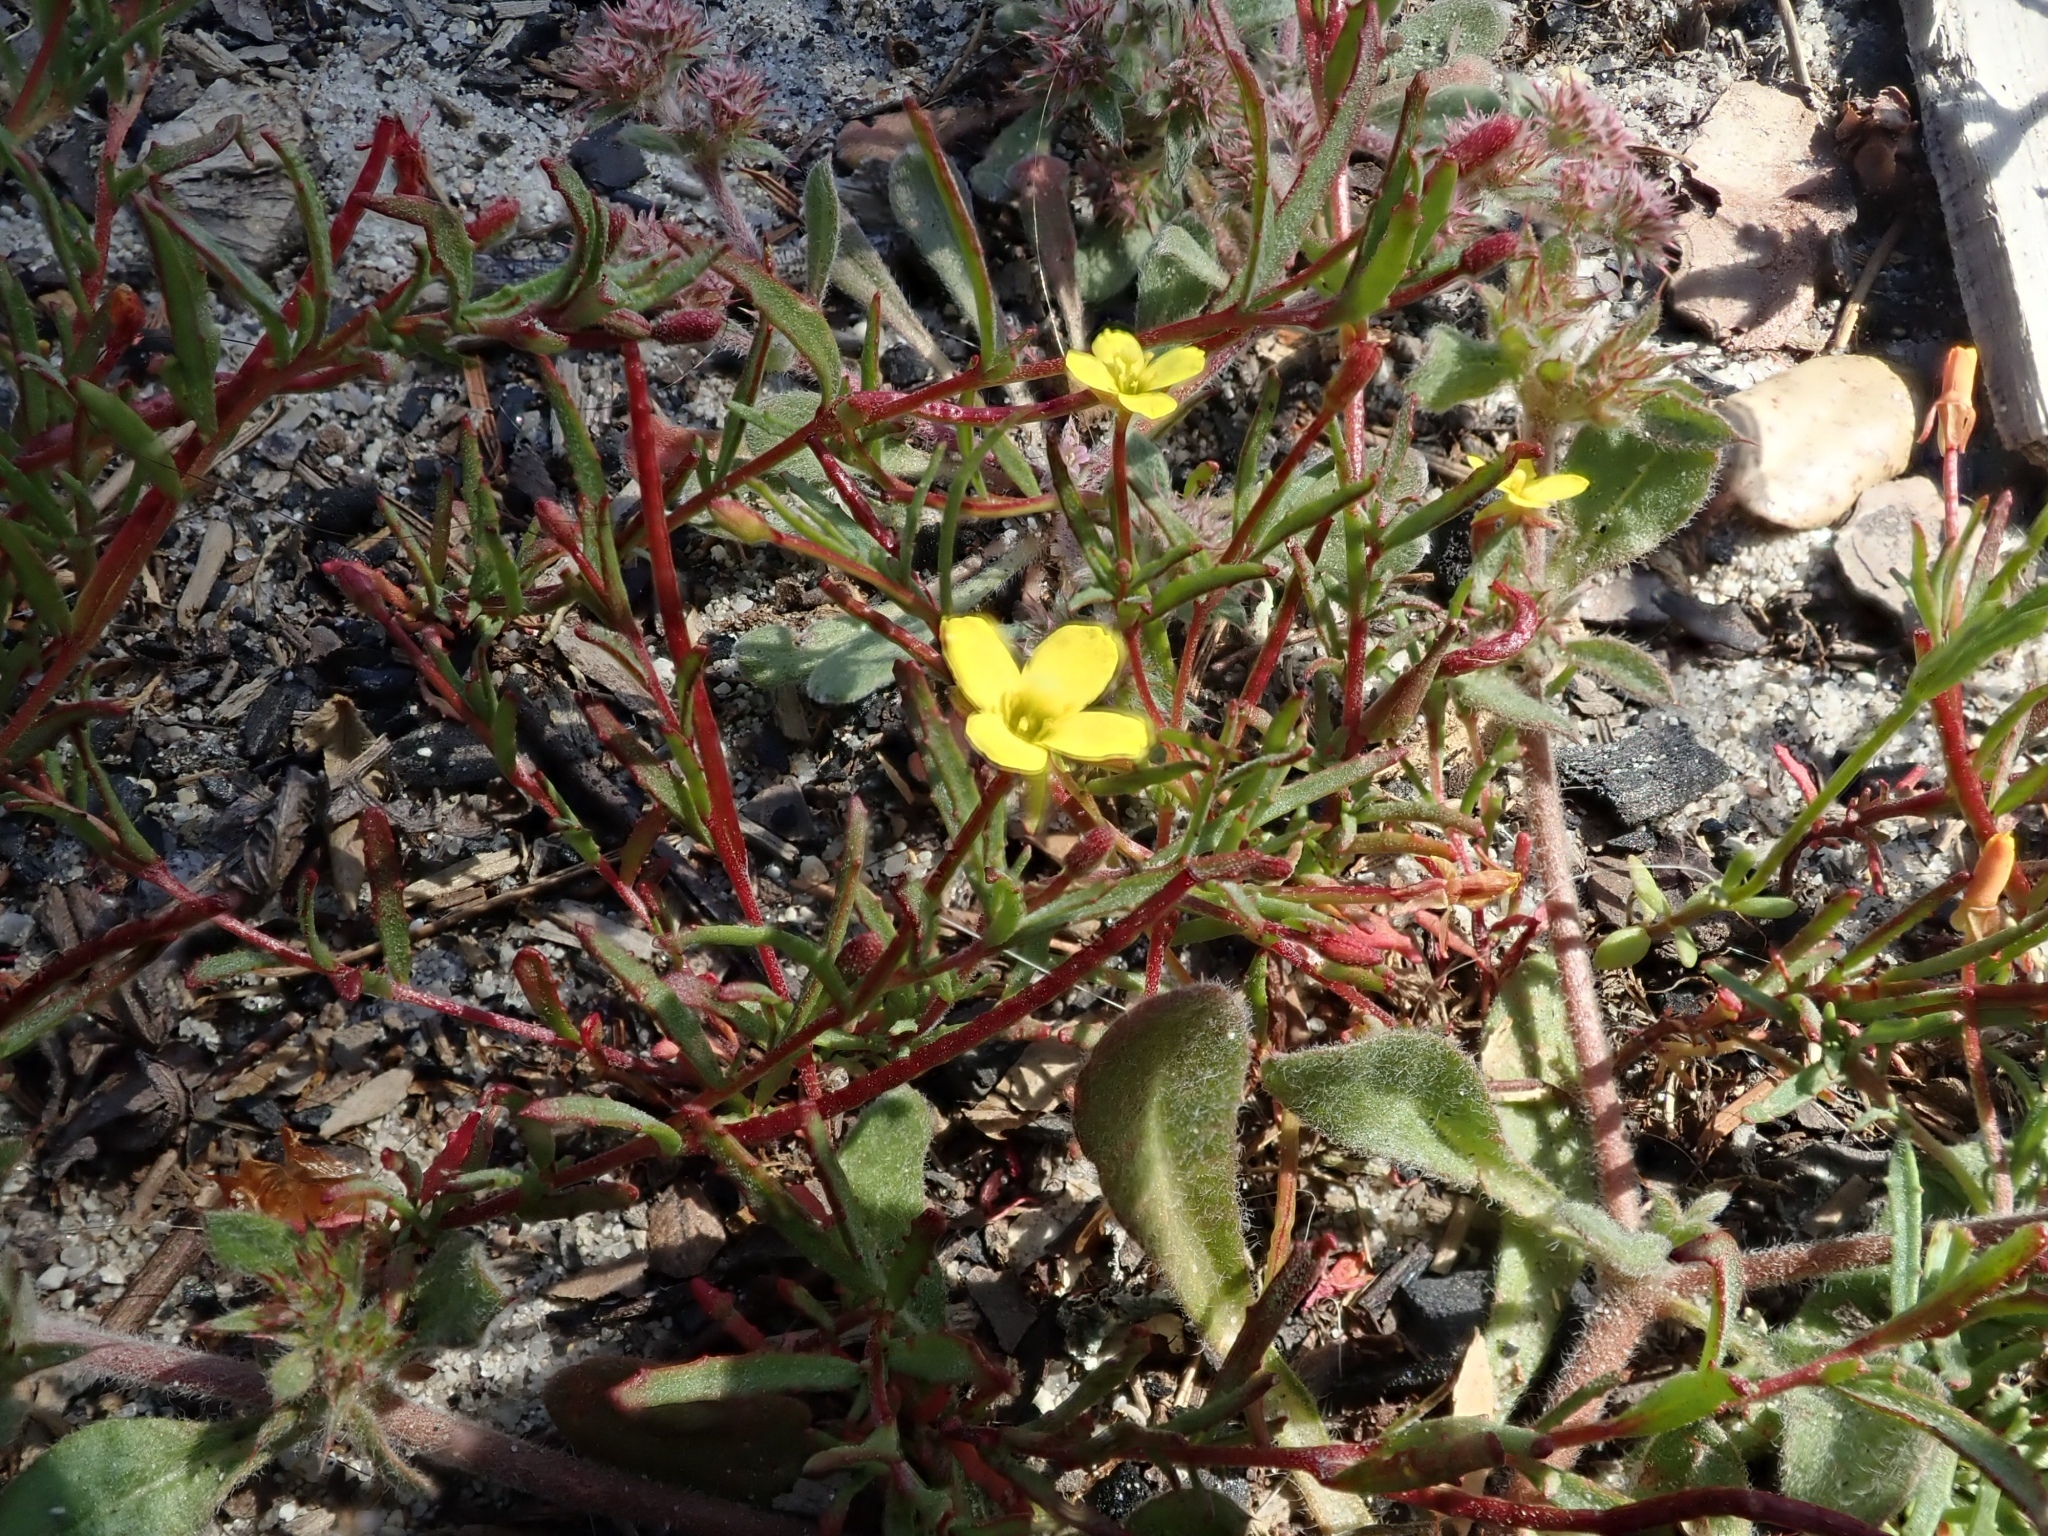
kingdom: Plantae
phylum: Tracheophyta
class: Magnoliopsida
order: Myrtales
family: Onagraceae
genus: Camissonia
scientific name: Camissonia strigulosa
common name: Contorted-primrose
